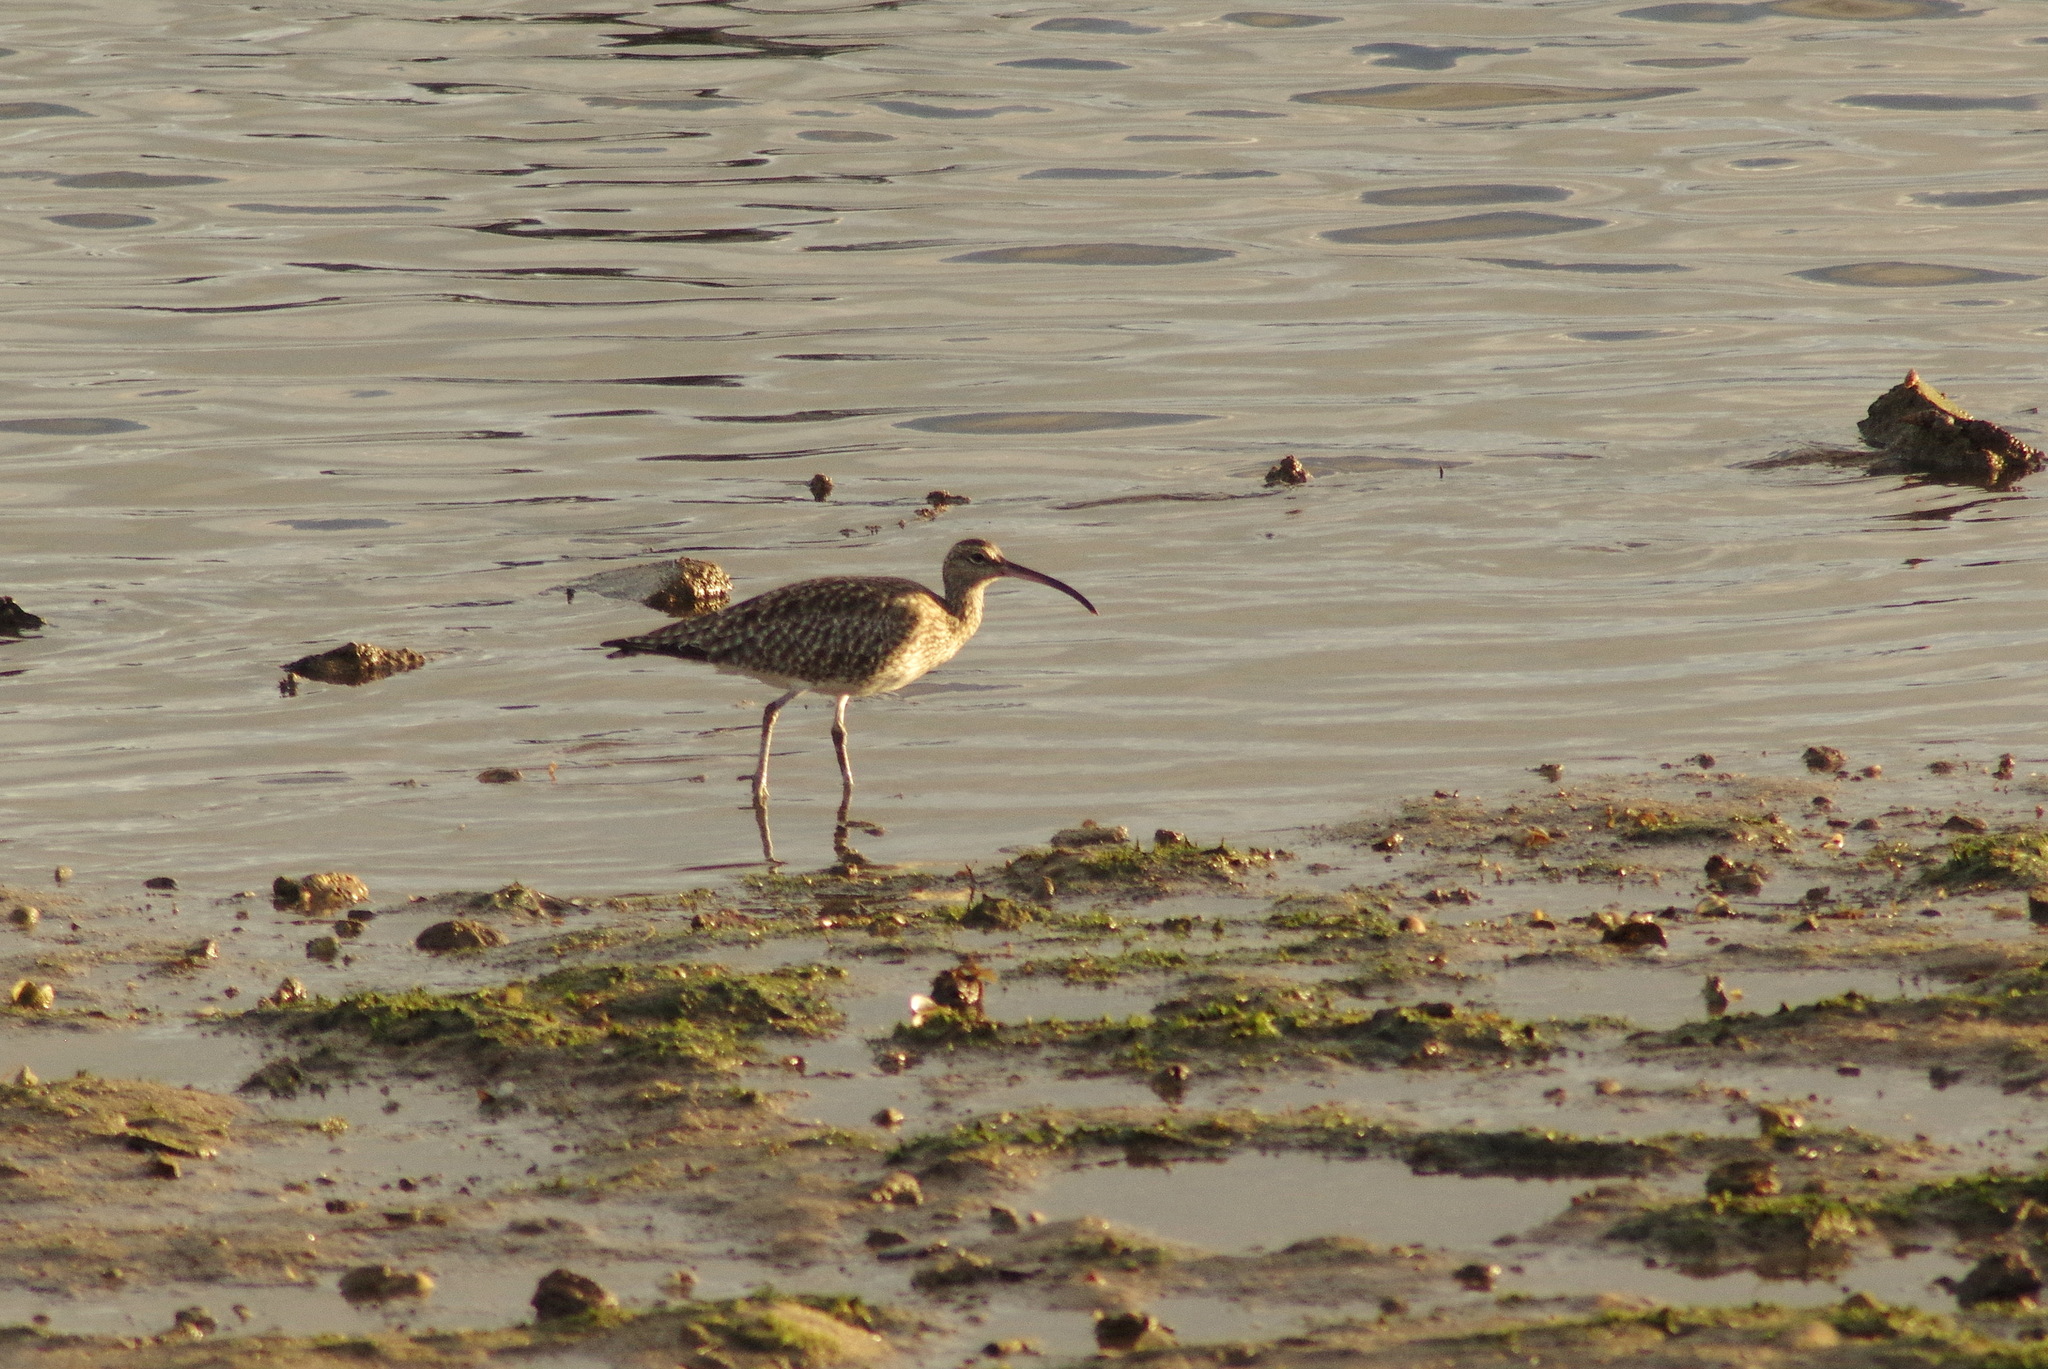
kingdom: Animalia
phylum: Chordata
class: Aves
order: Charadriiformes
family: Scolopacidae
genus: Numenius
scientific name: Numenius phaeopus
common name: Whimbrel
